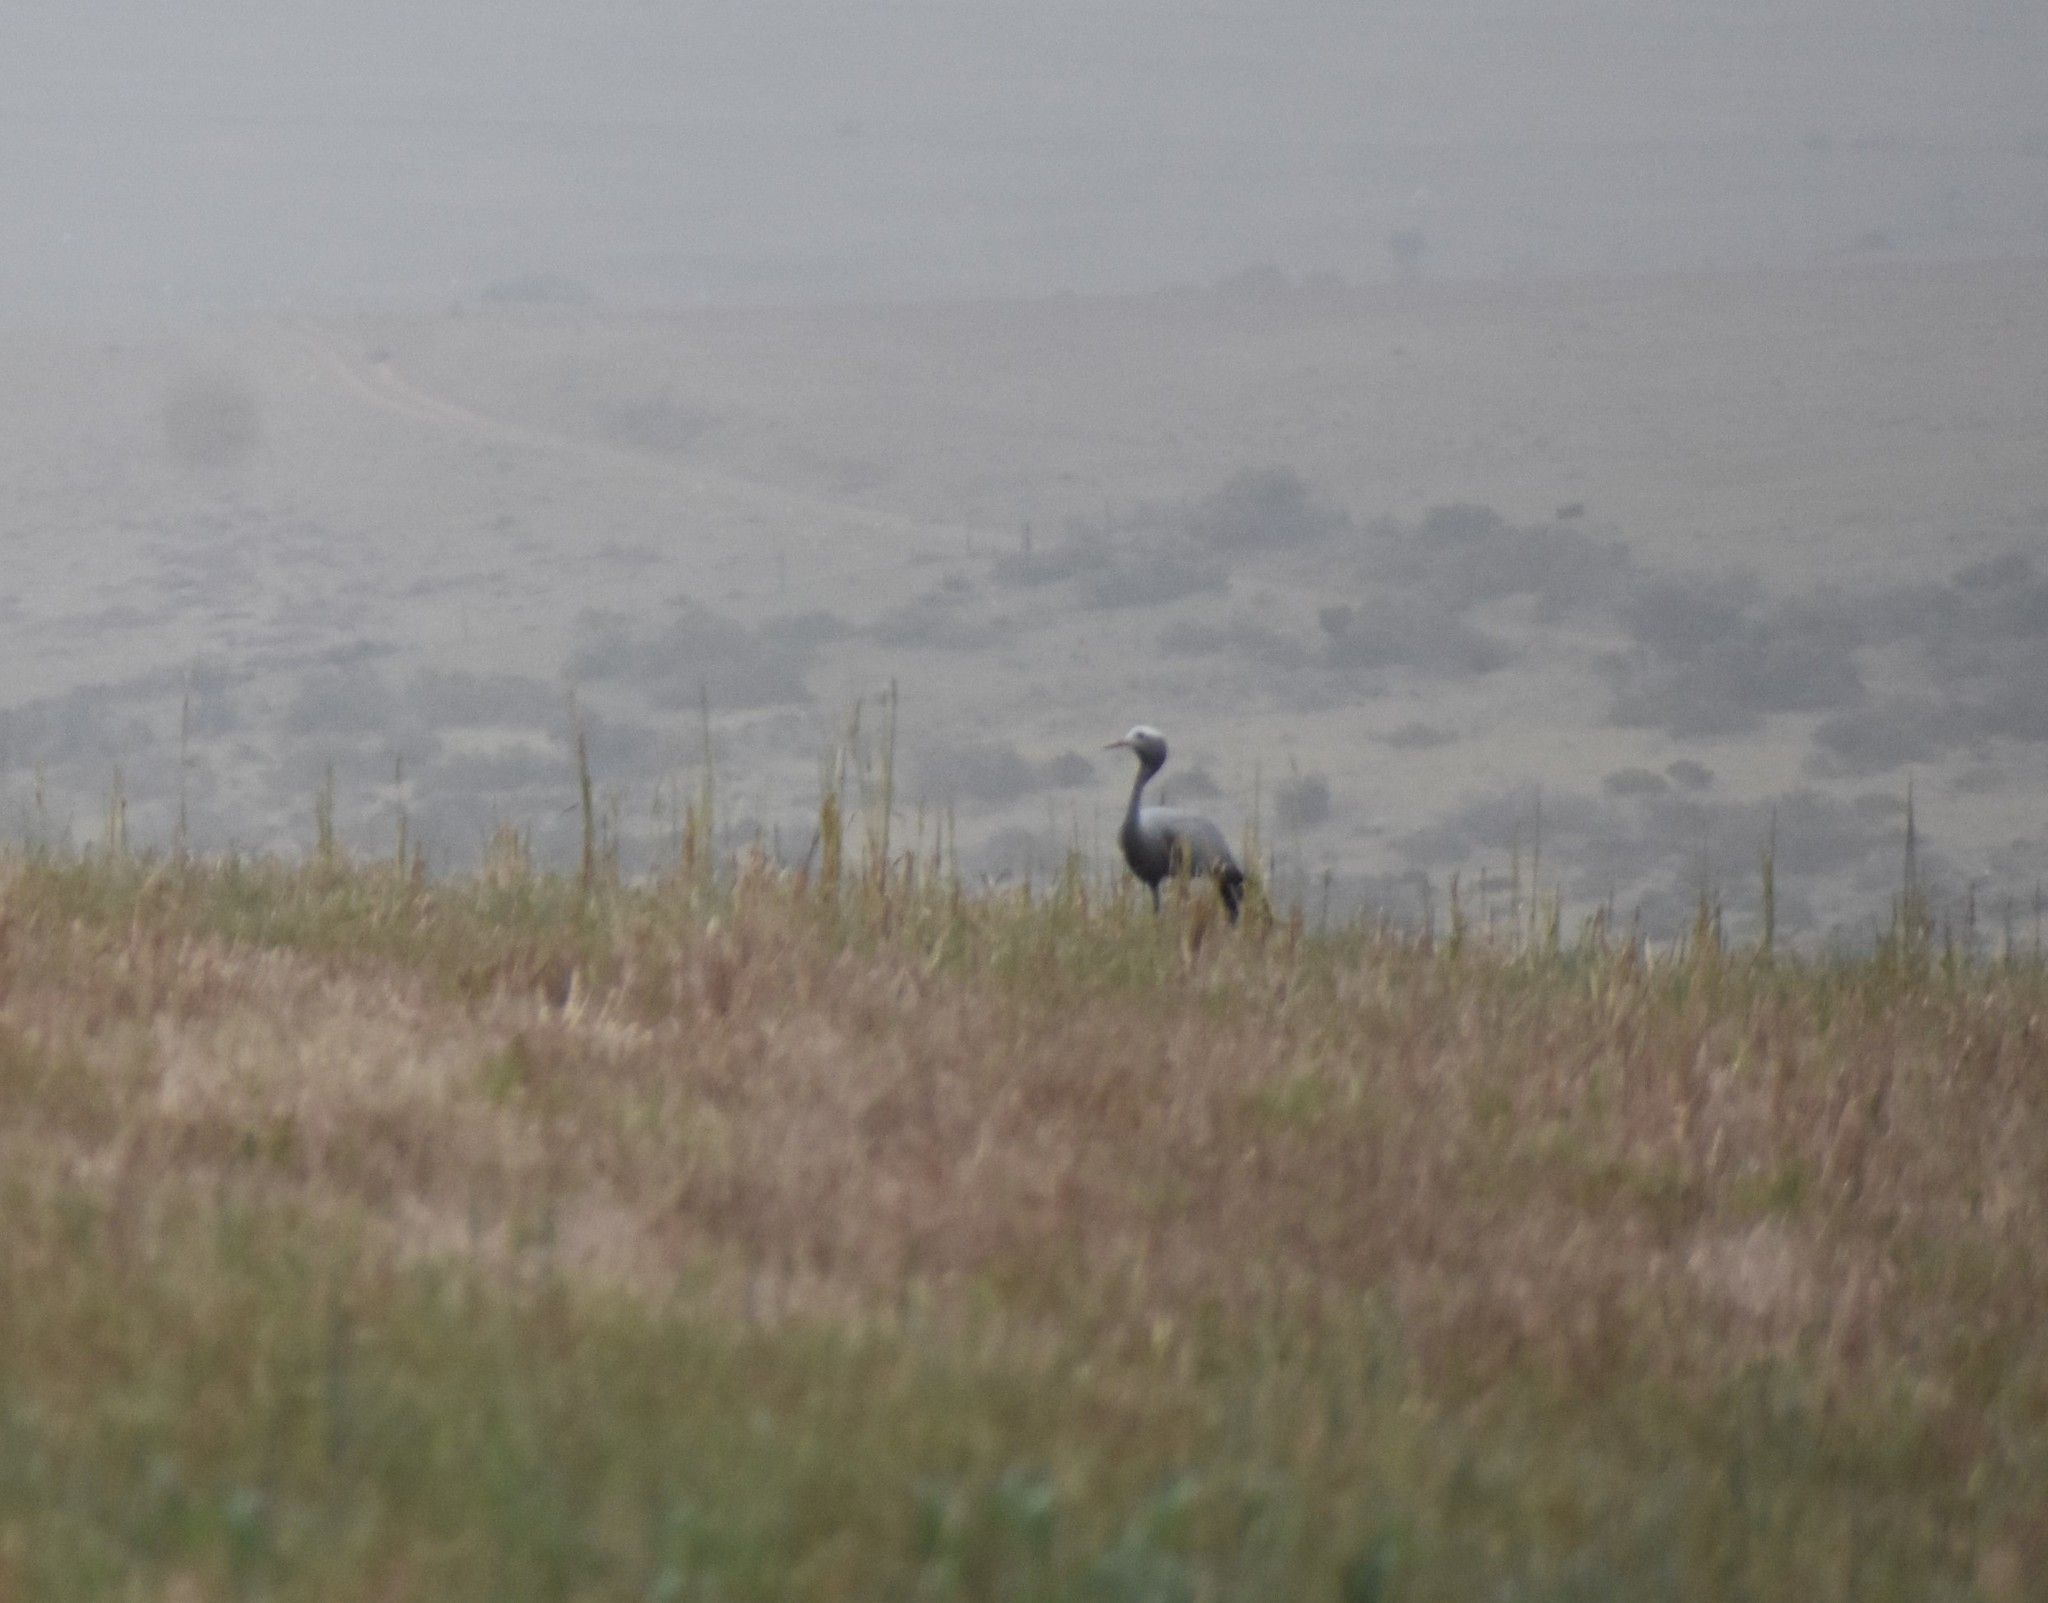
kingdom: Animalia
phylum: Chordata
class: Aves
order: Gruiformes
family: Gruidae
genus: Anthropoides
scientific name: Anthropoides paradiseus
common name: Blue crane
